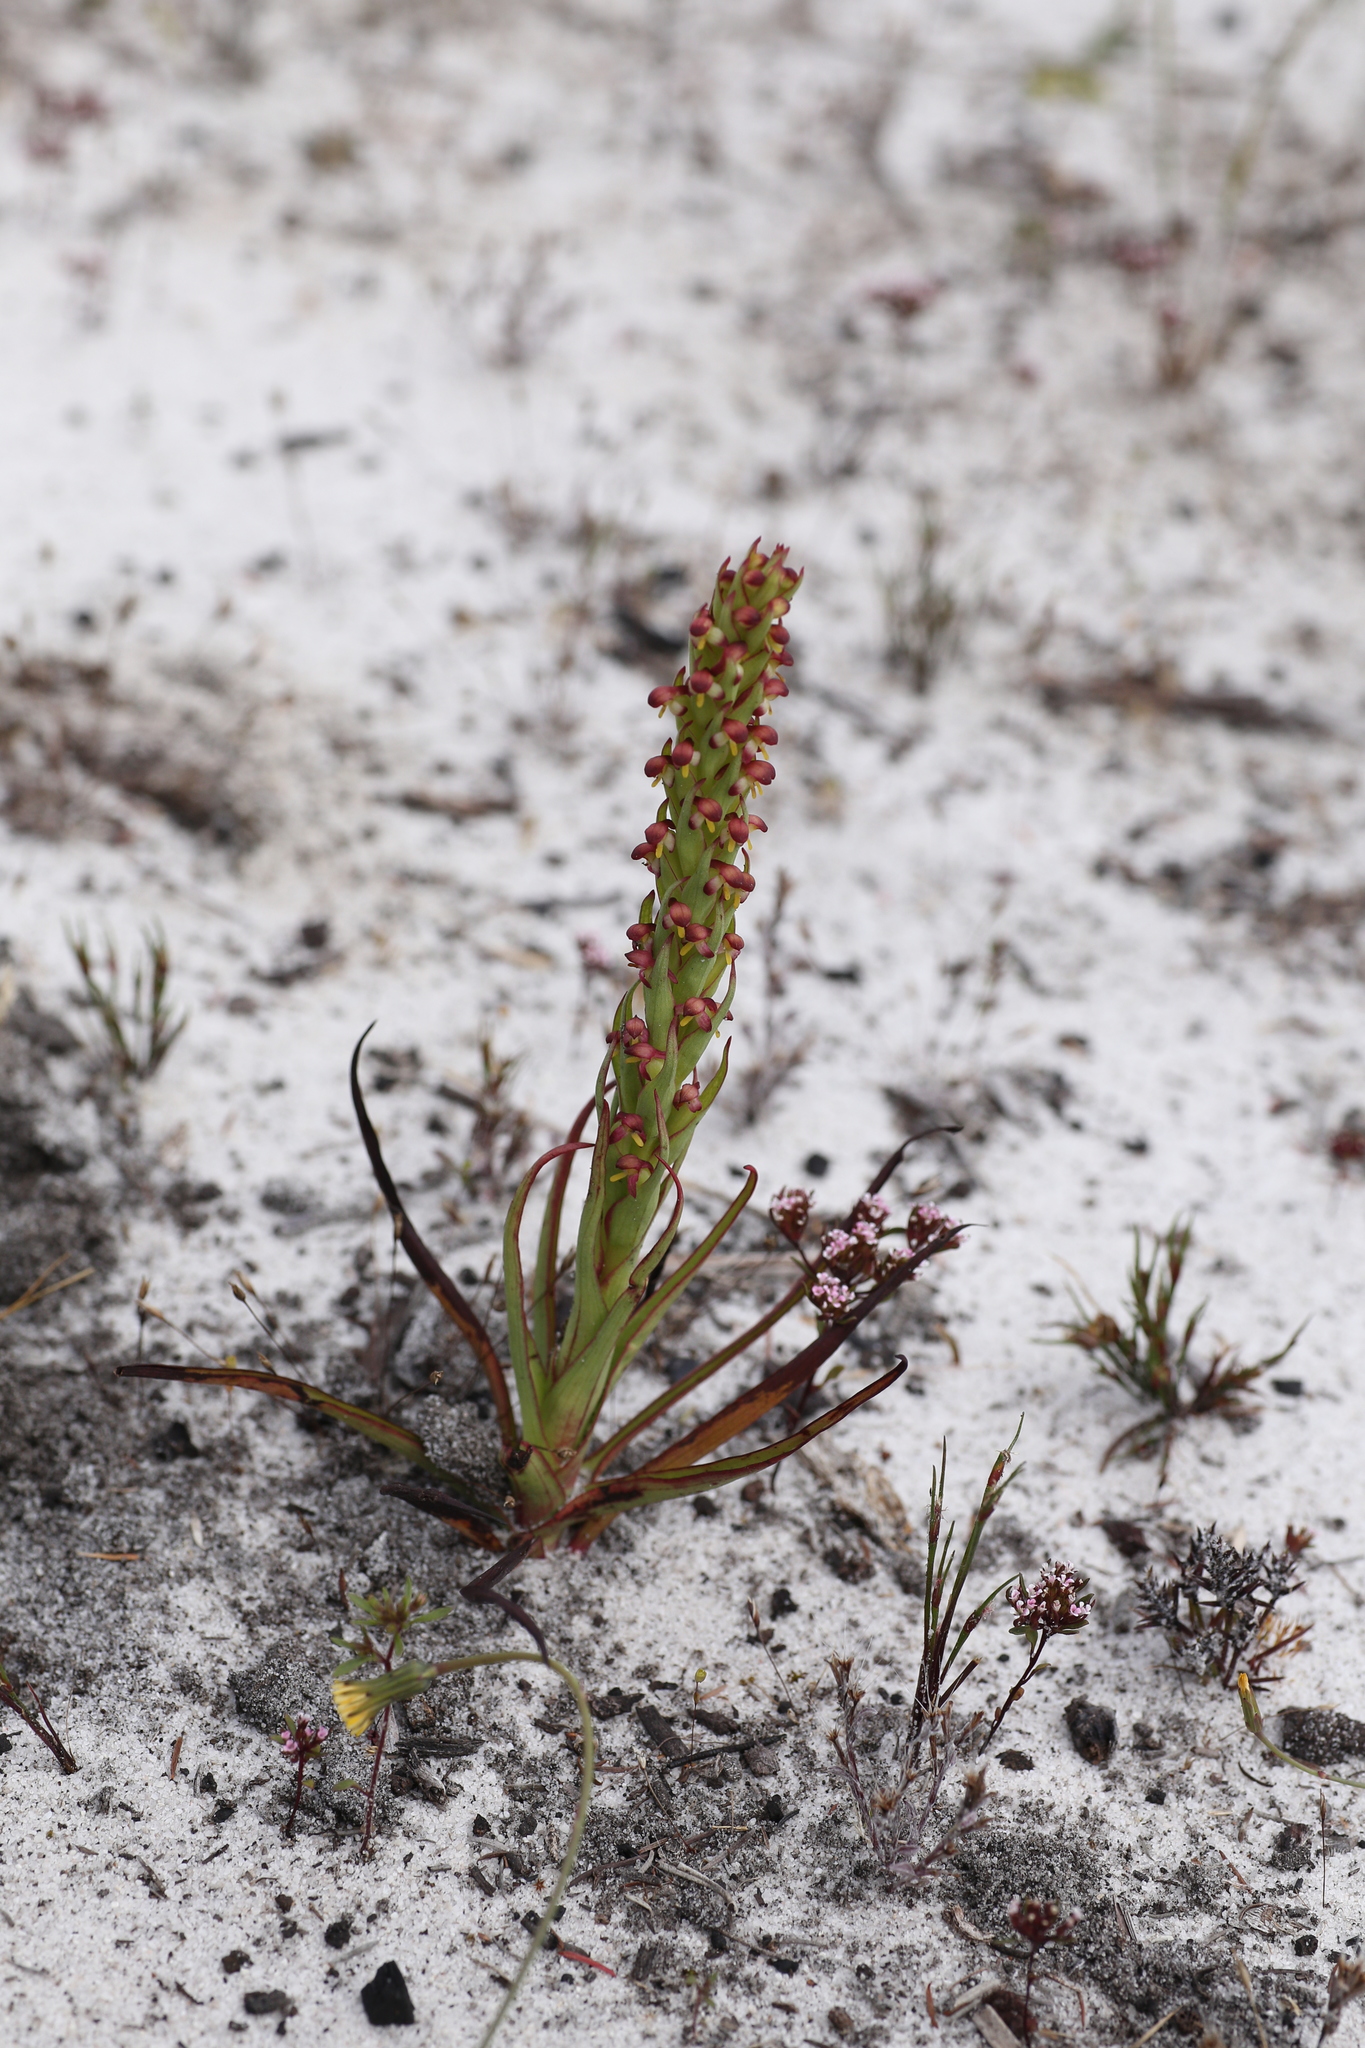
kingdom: Plantae
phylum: Tracheophyta
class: Liliopsida
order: Asparagales
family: Orchidaceae
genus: Disa
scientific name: Disa bracteata
